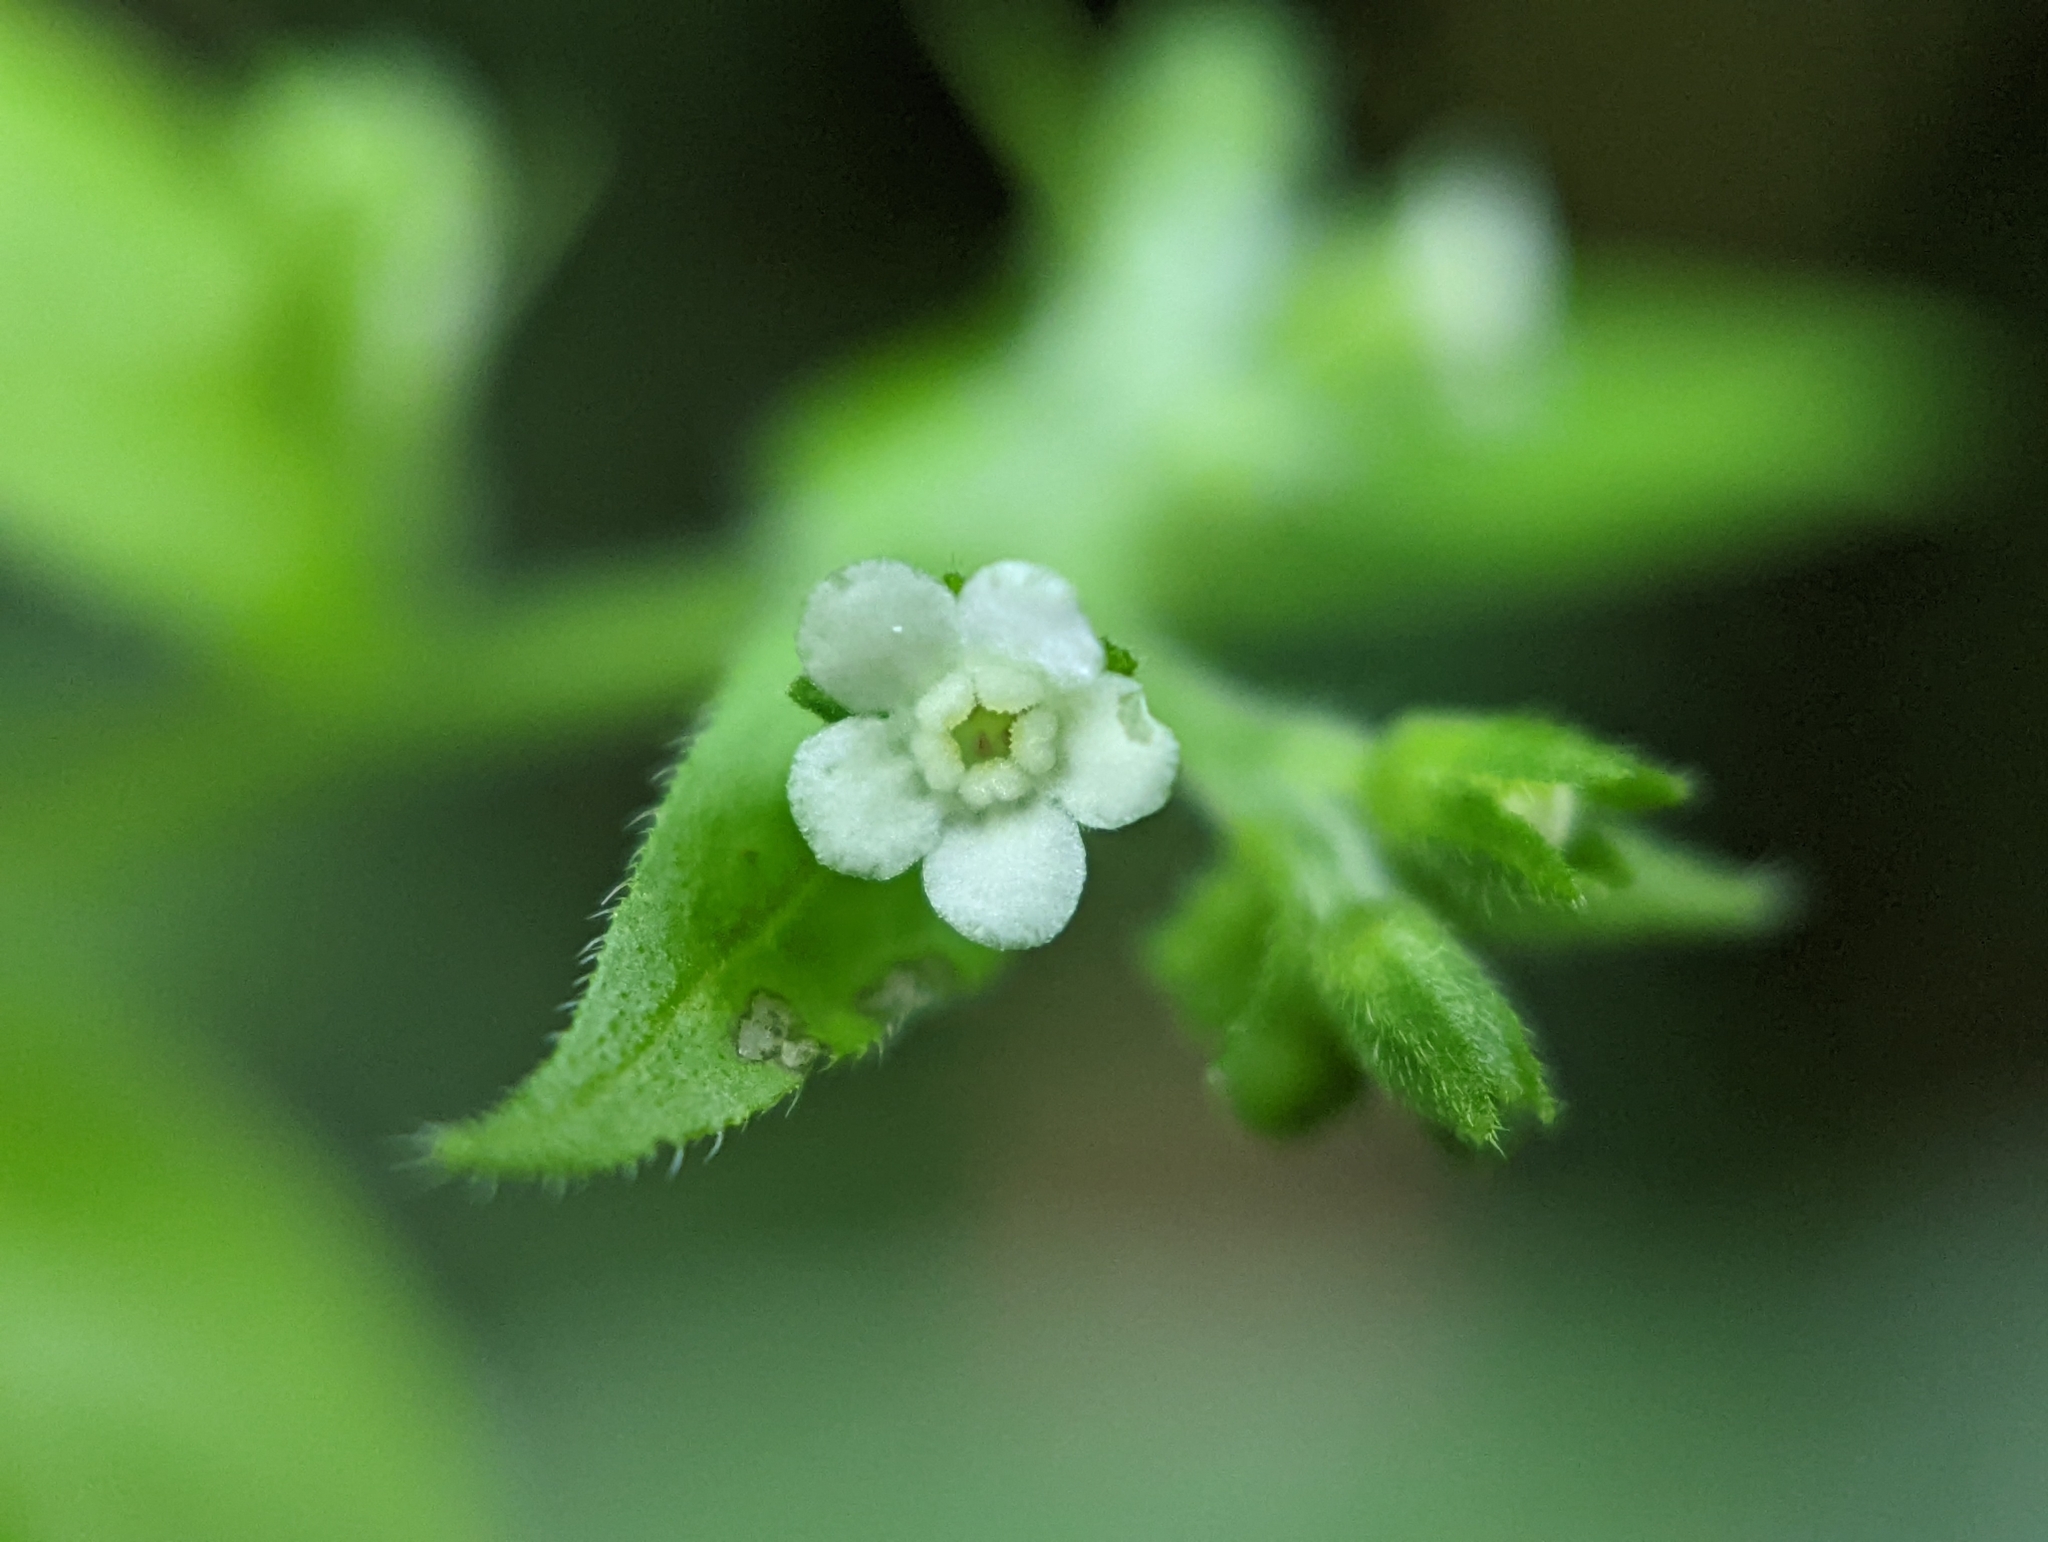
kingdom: Plantae
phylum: Tracheophyta
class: Magnoliopsida
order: Boraginales
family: Boraginaceae
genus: Hackelia
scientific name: Hackelia virginiana
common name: Beggar's-lice
